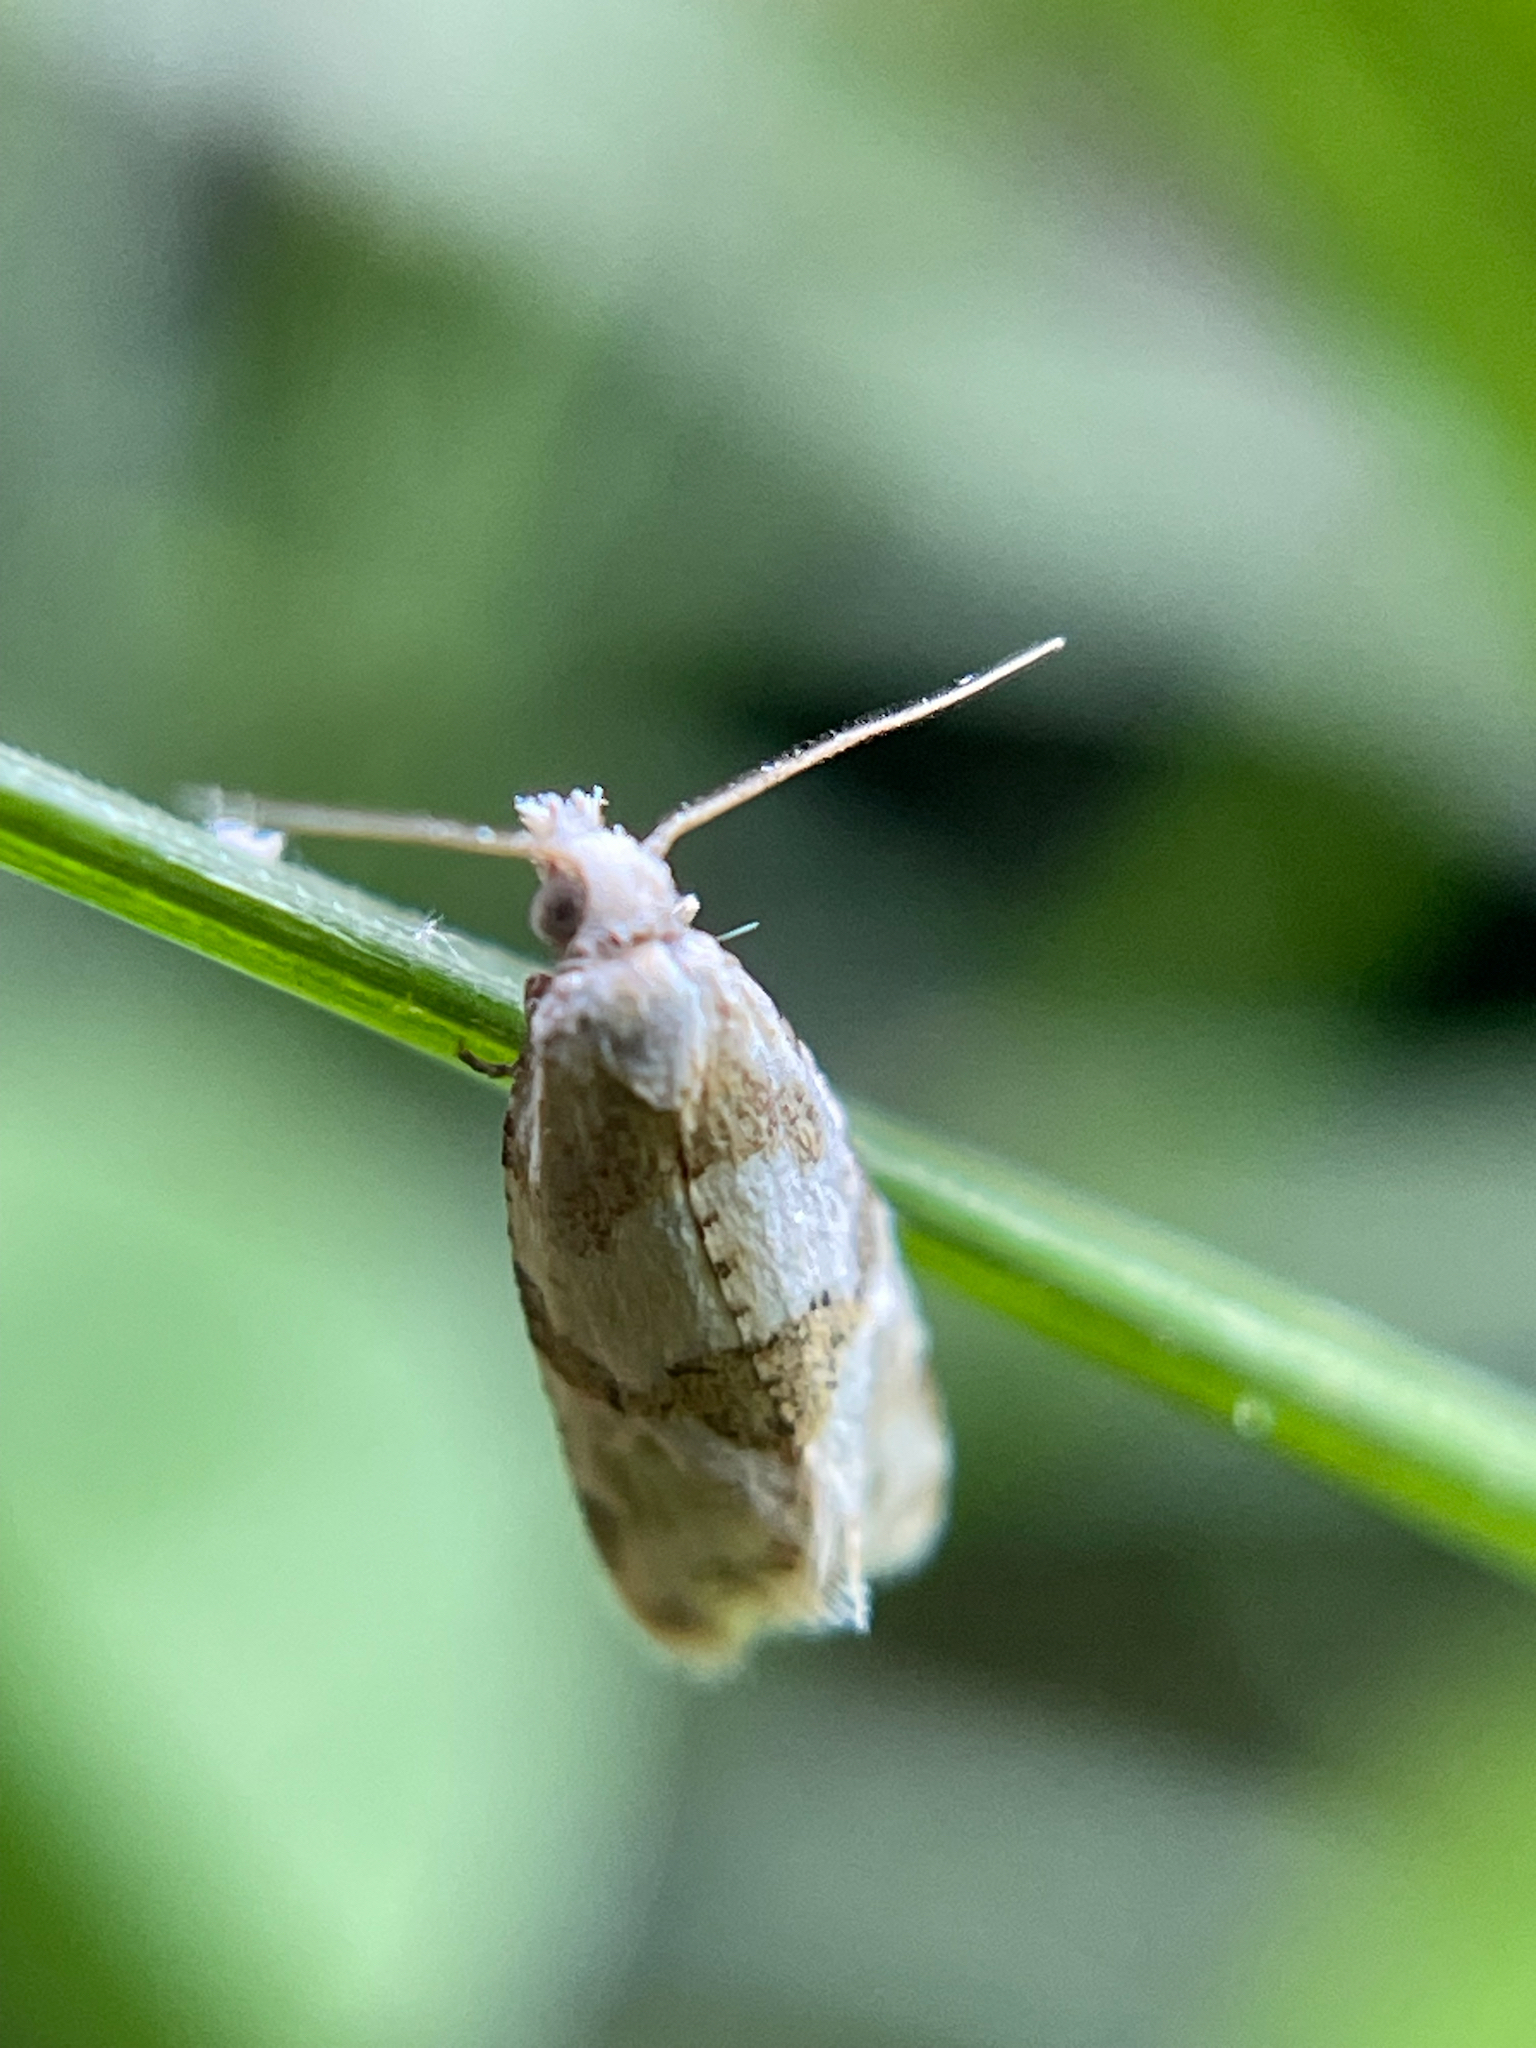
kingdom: Animalia
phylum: Arthropoda
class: Insecta
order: Lepidoptera
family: Tortricidae
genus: Aethes
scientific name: Aethes argentilimitana
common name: Silver-bordered aethes
